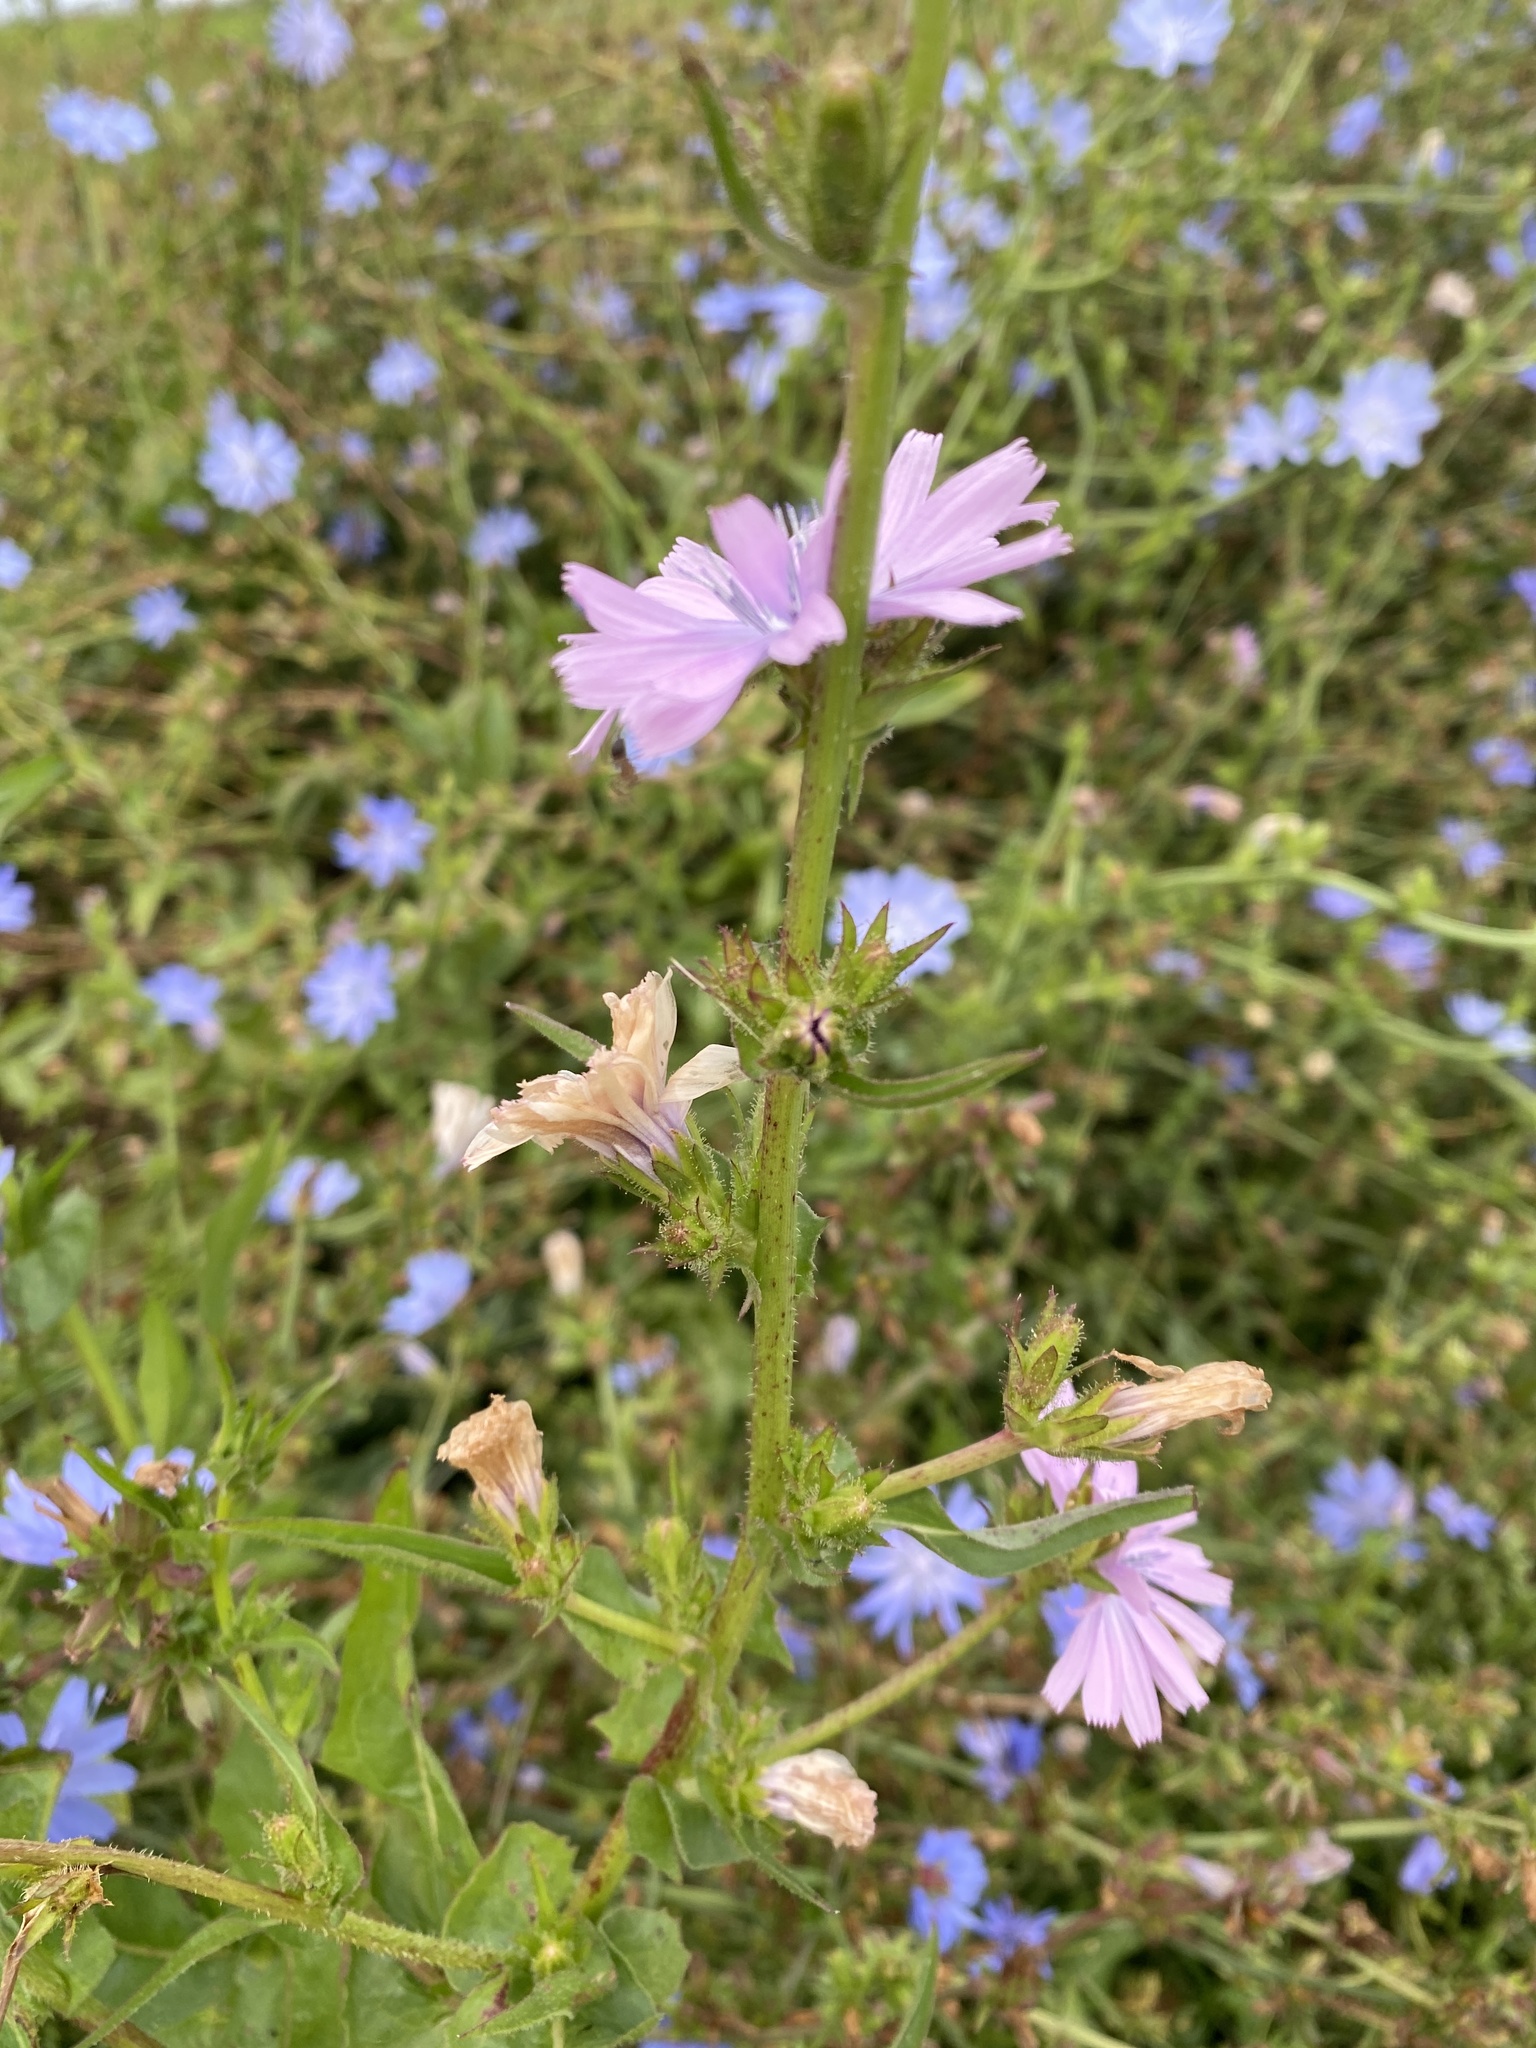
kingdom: Plantae
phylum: Tracheophyta
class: Magnoliopsida
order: Asterales
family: Asteraceae
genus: Cichorium
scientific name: Cichorium intybus
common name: Chicory
